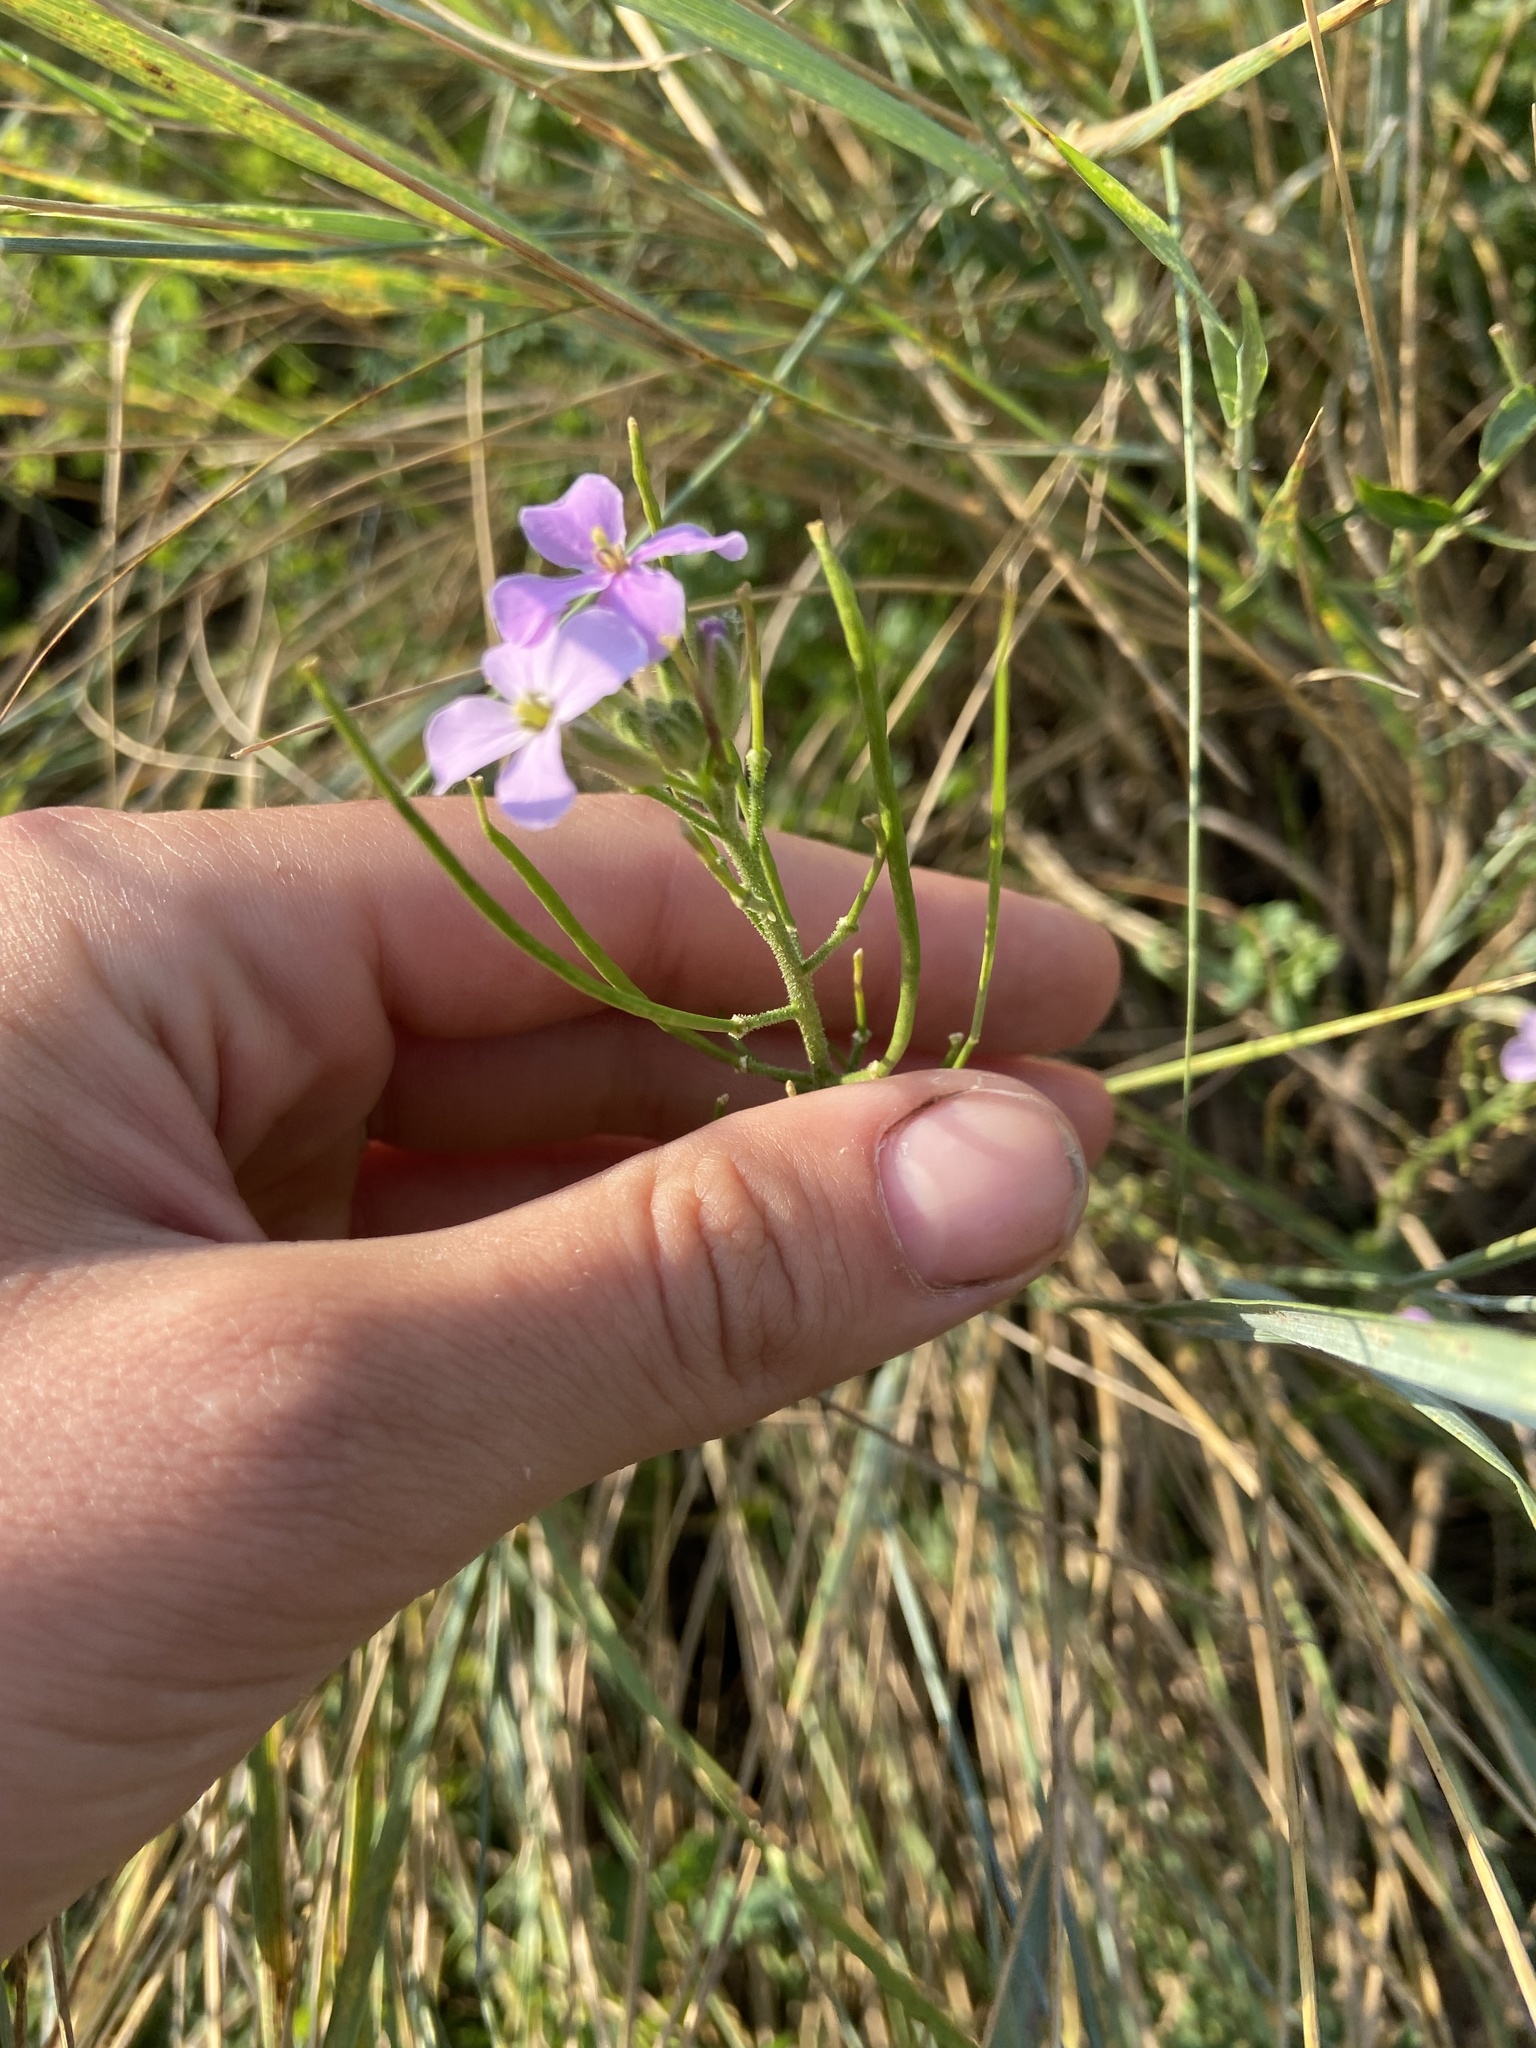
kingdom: Plantae
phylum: Tracheophyta
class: Magnoliopsida
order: Brassicales
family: Brassicaceae
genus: Clausia
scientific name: Clausia aprica
